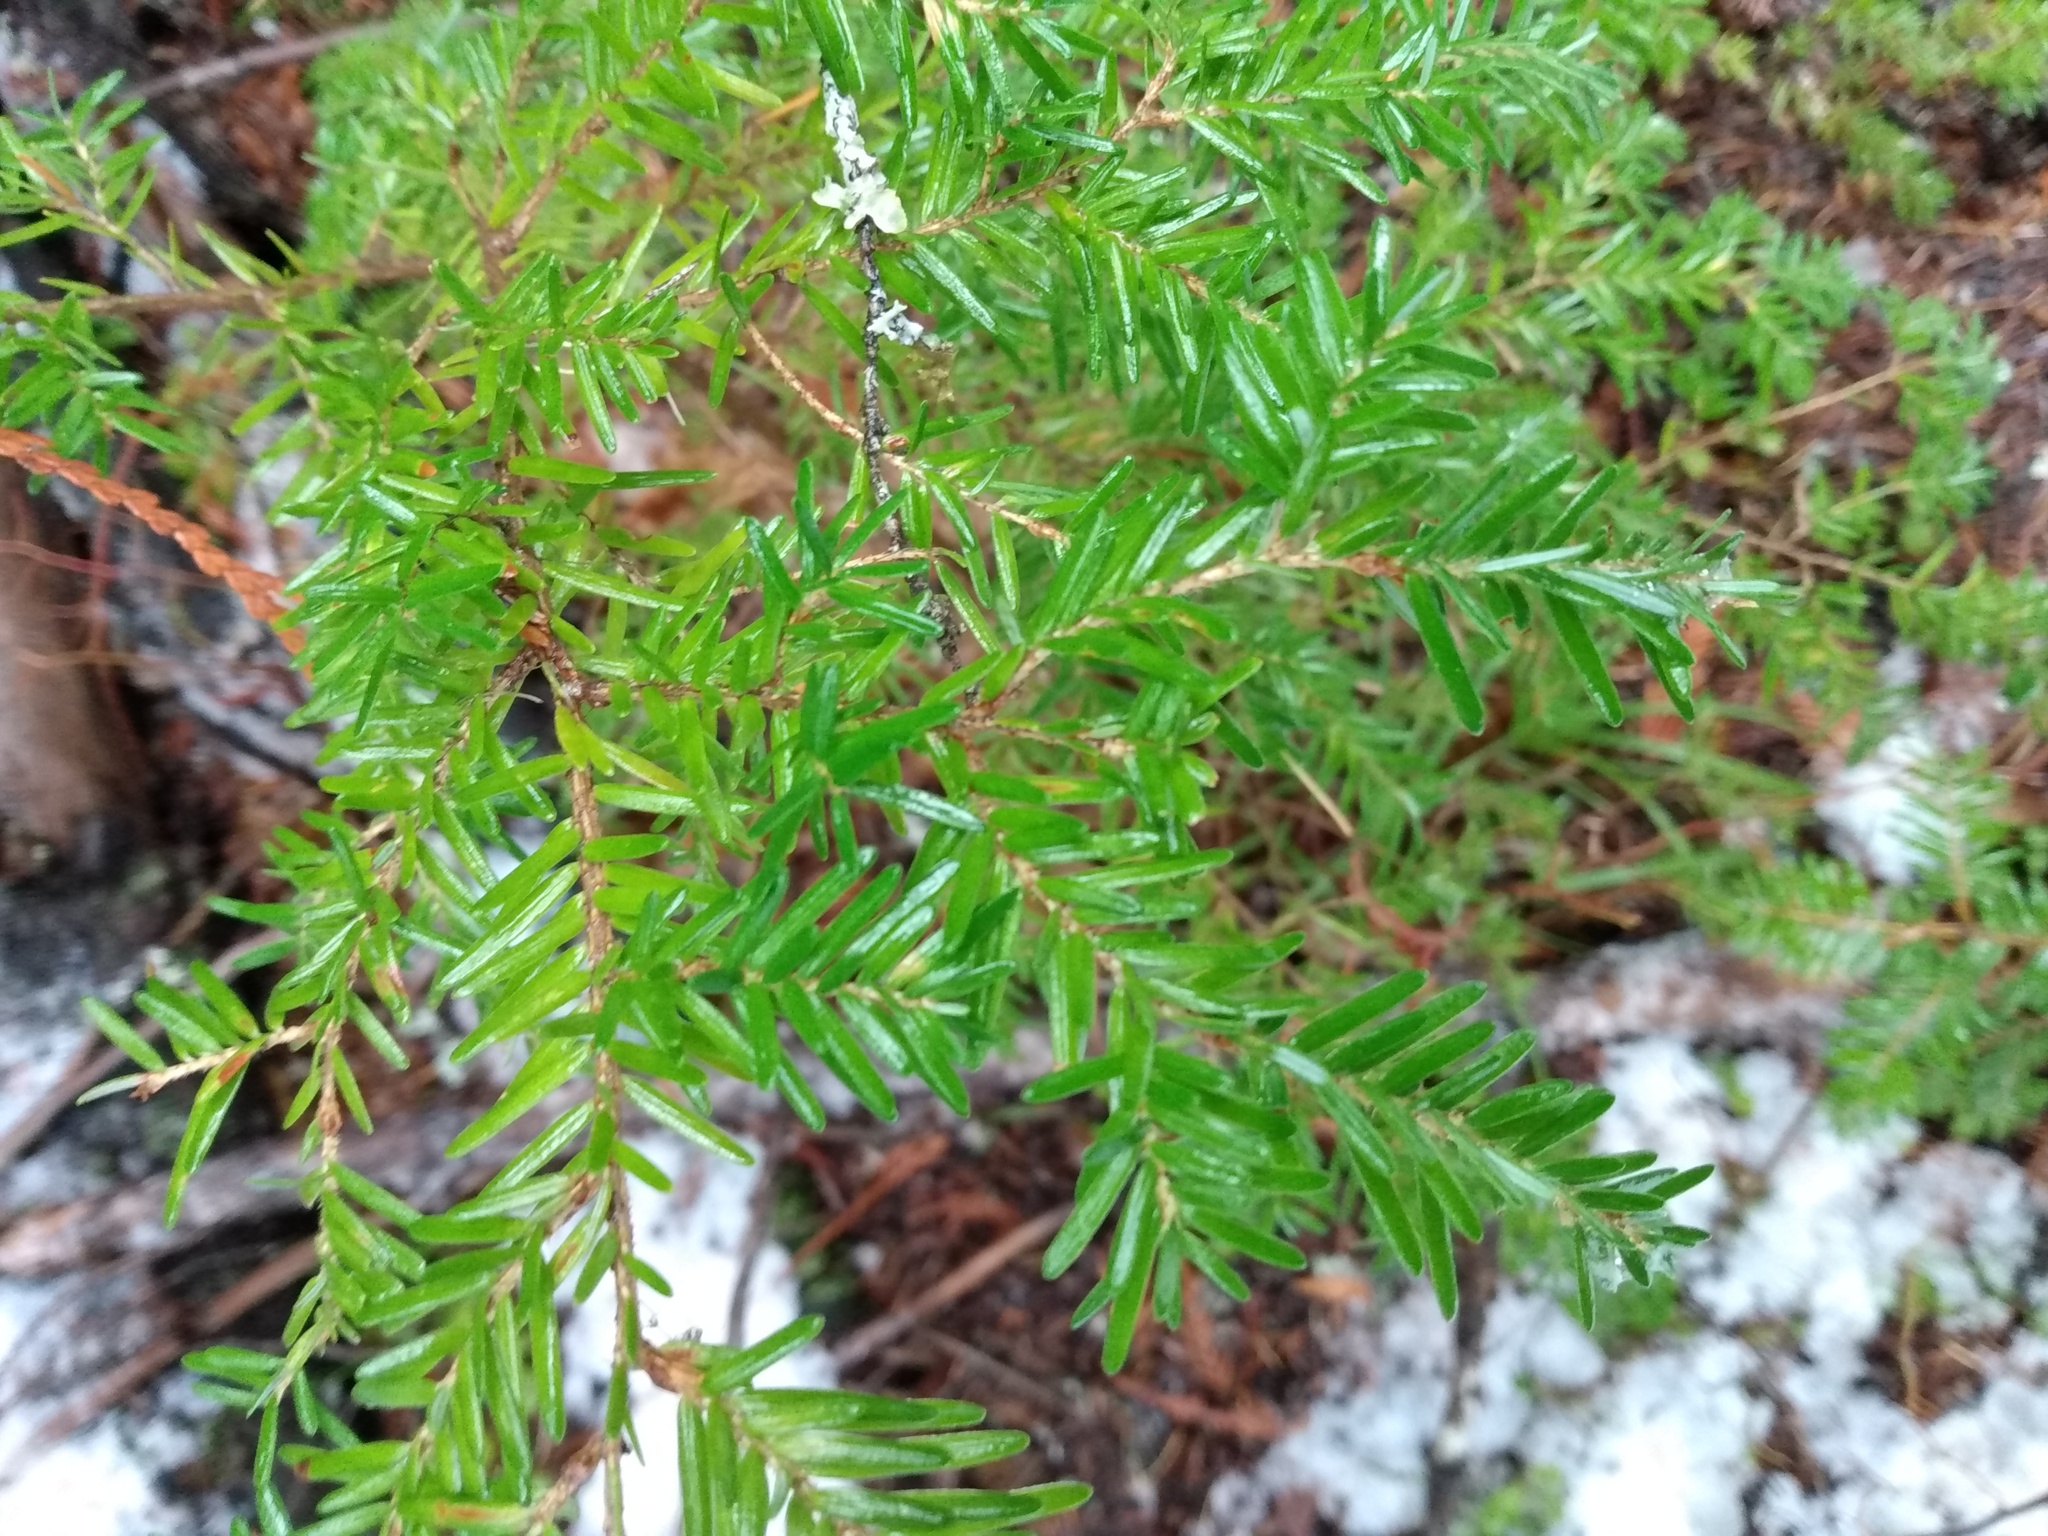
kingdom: Plantae
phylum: Tracheophyta
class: Pinopsida
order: Pinales
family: Pinaceae
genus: Tsuga
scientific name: Tsuga heterophylla
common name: Western hemlock
